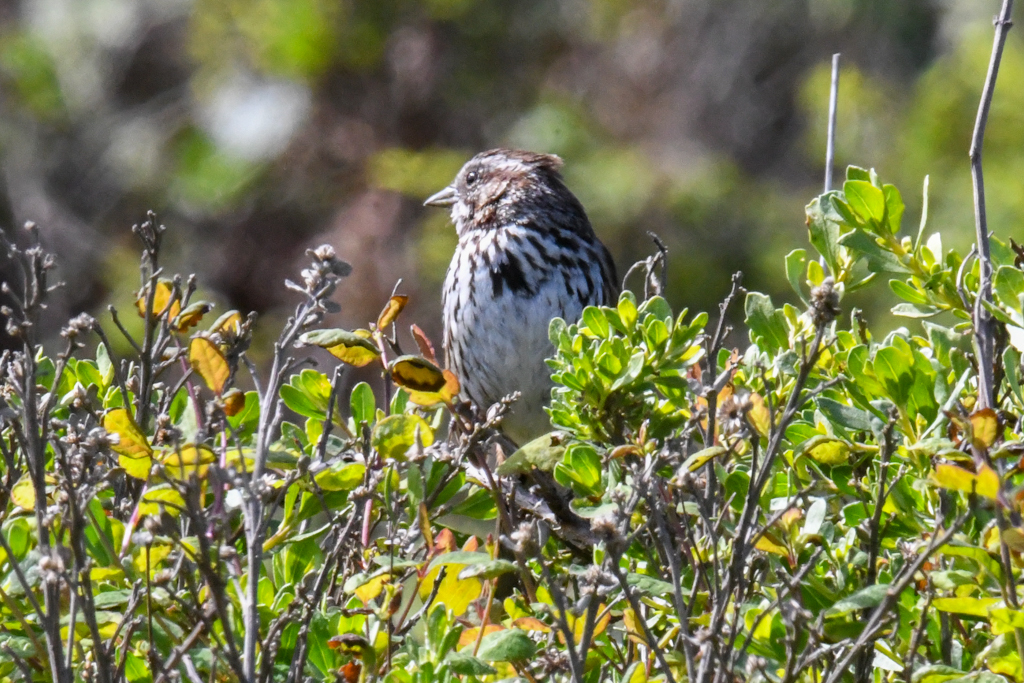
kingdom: Animalia
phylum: Chordata
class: Aves
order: Passeriformes
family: Passerellidae
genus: Melospiza
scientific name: Melospiza melodia
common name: Song sparrow
